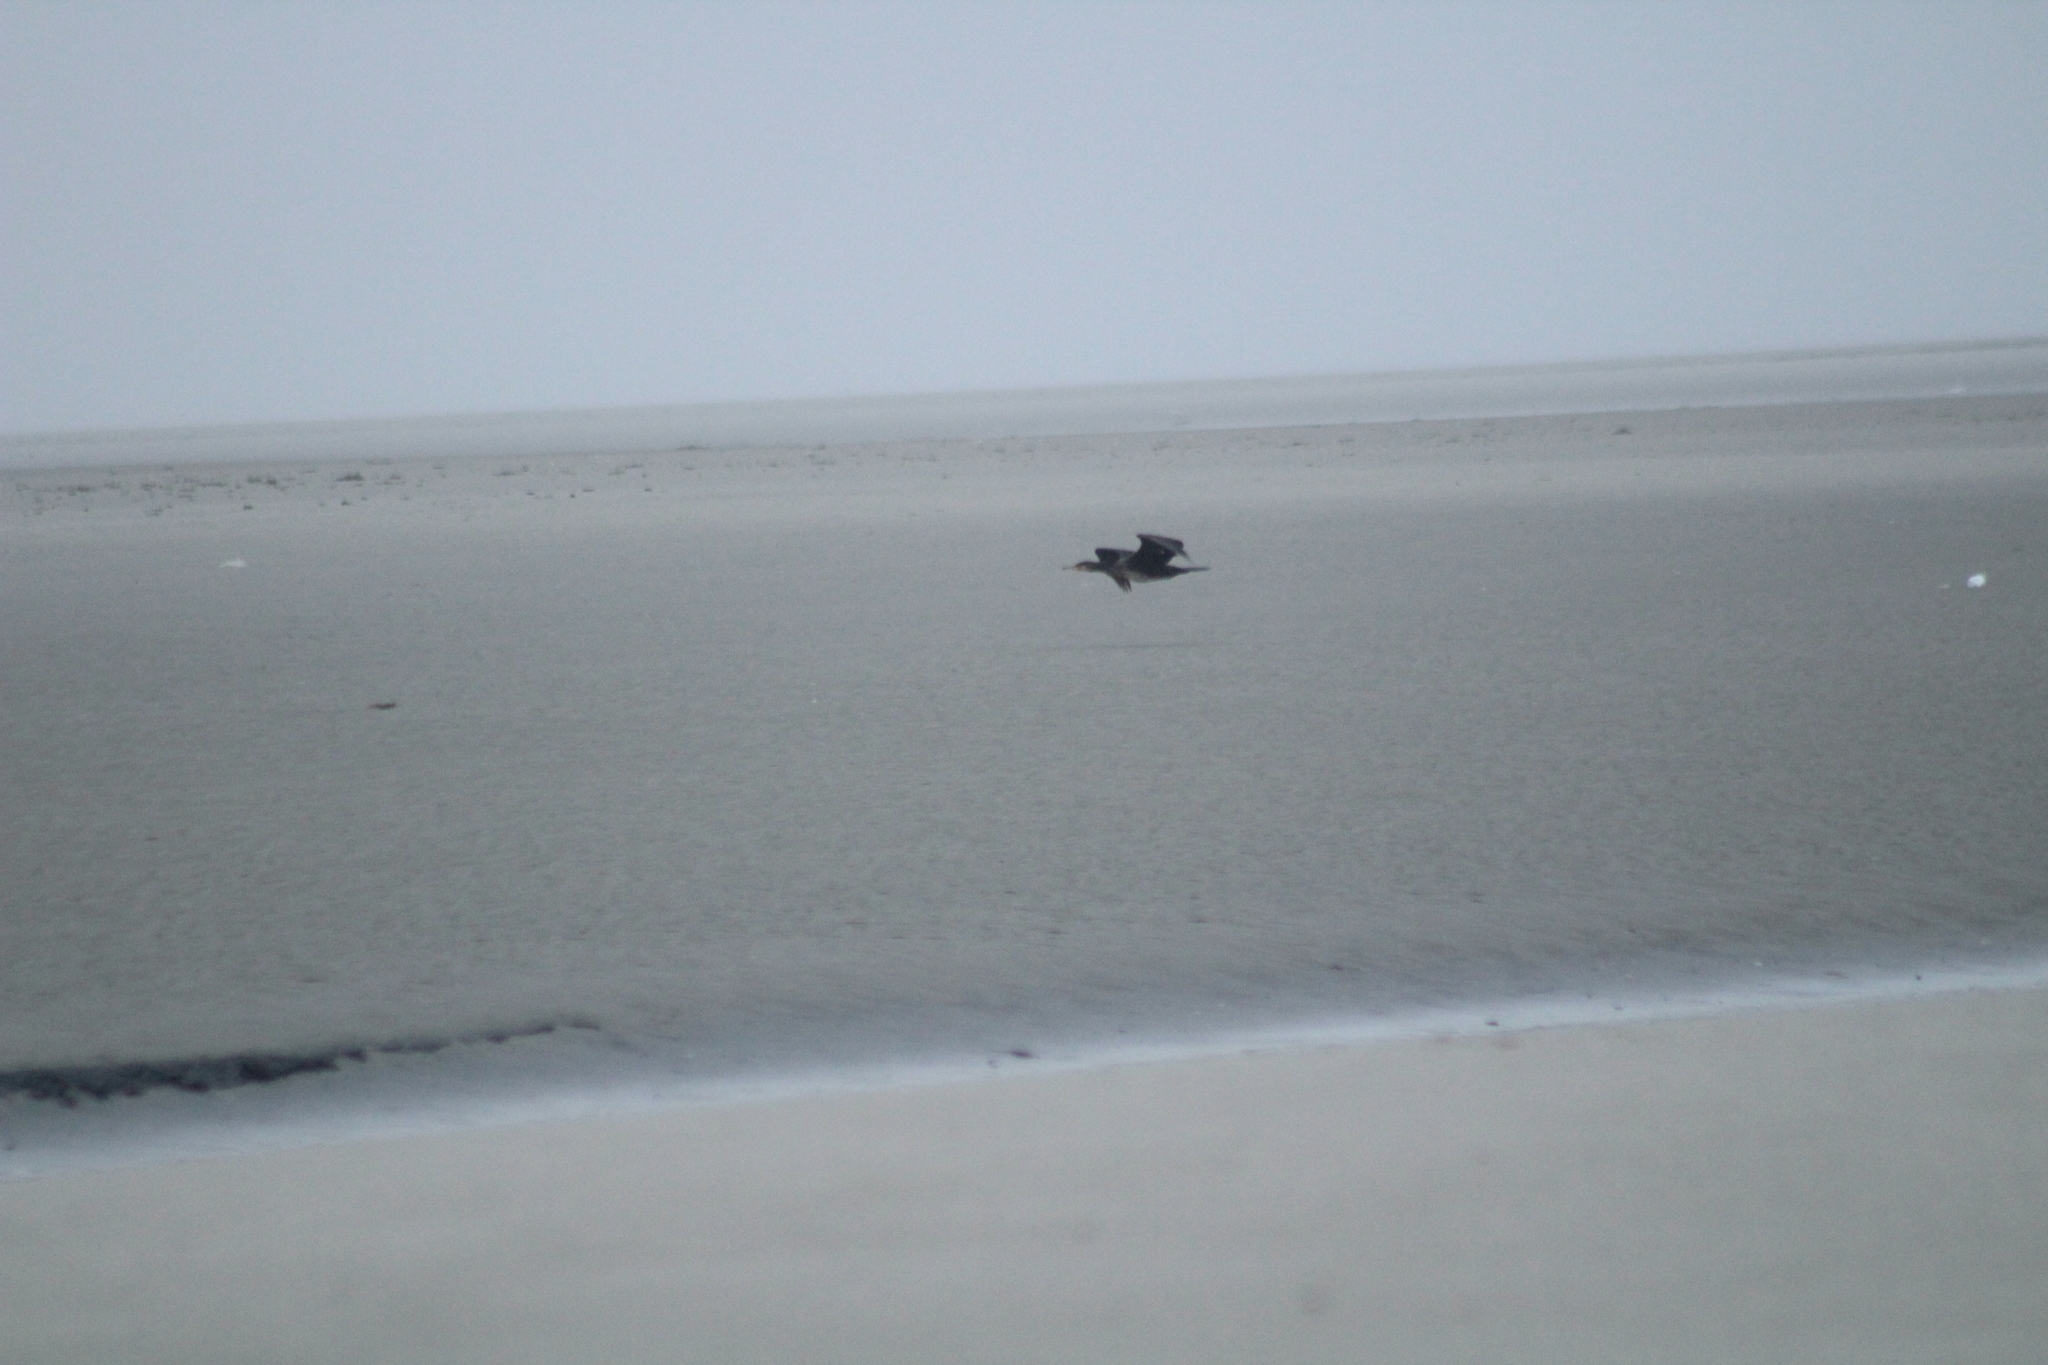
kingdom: Animalia
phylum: Chordata
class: Aves
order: Suliformes
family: Phalacrocoracidae
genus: Phalacrocorax
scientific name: Phalacrocorax carbo
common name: Great cormorant
